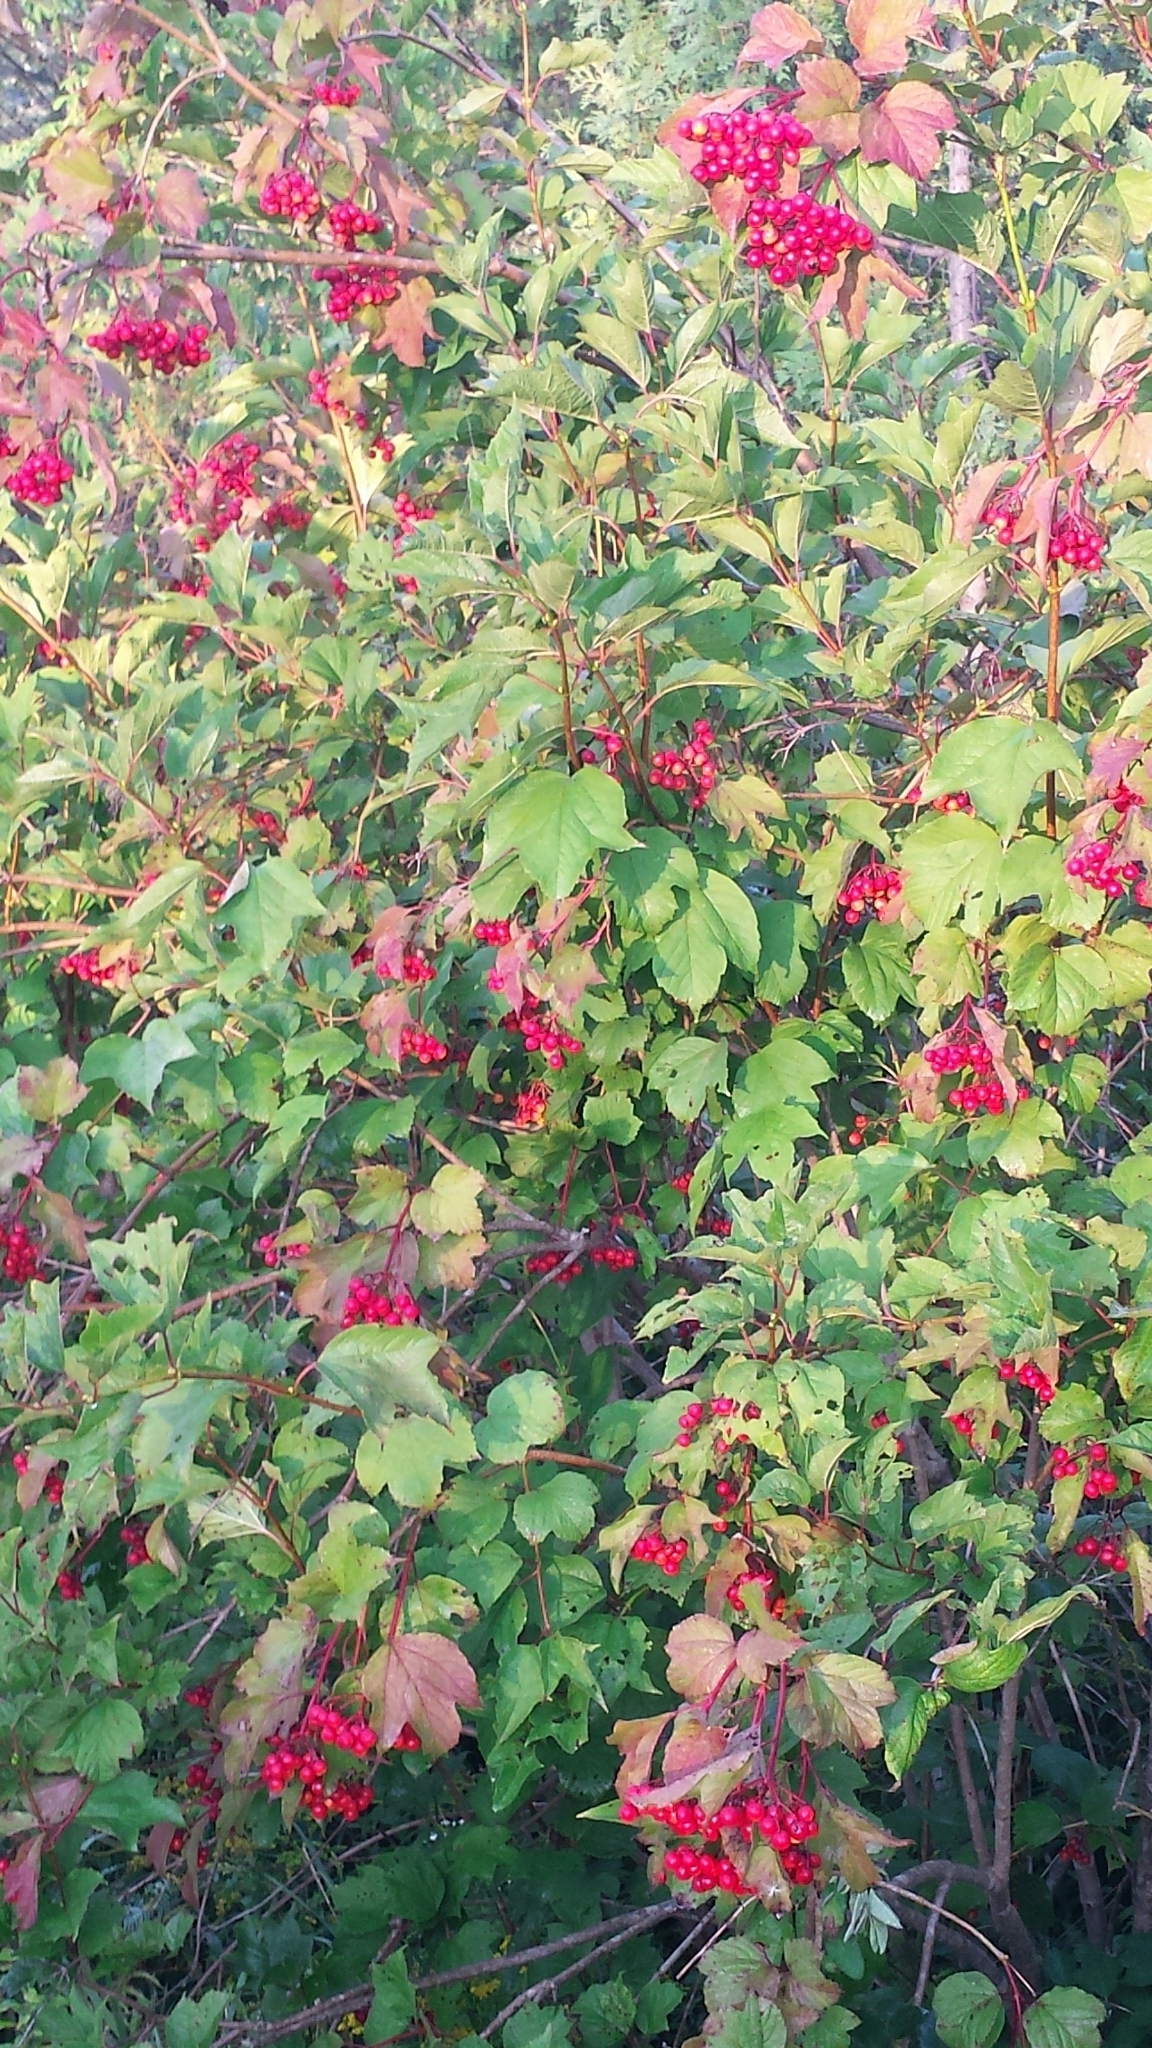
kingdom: Plantae
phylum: Tracheophyta
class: Magnoliopsida
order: Dipsacales
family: Viburnaceae
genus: Viburnum
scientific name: Viburnum trilobum
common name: American cranberrybush
